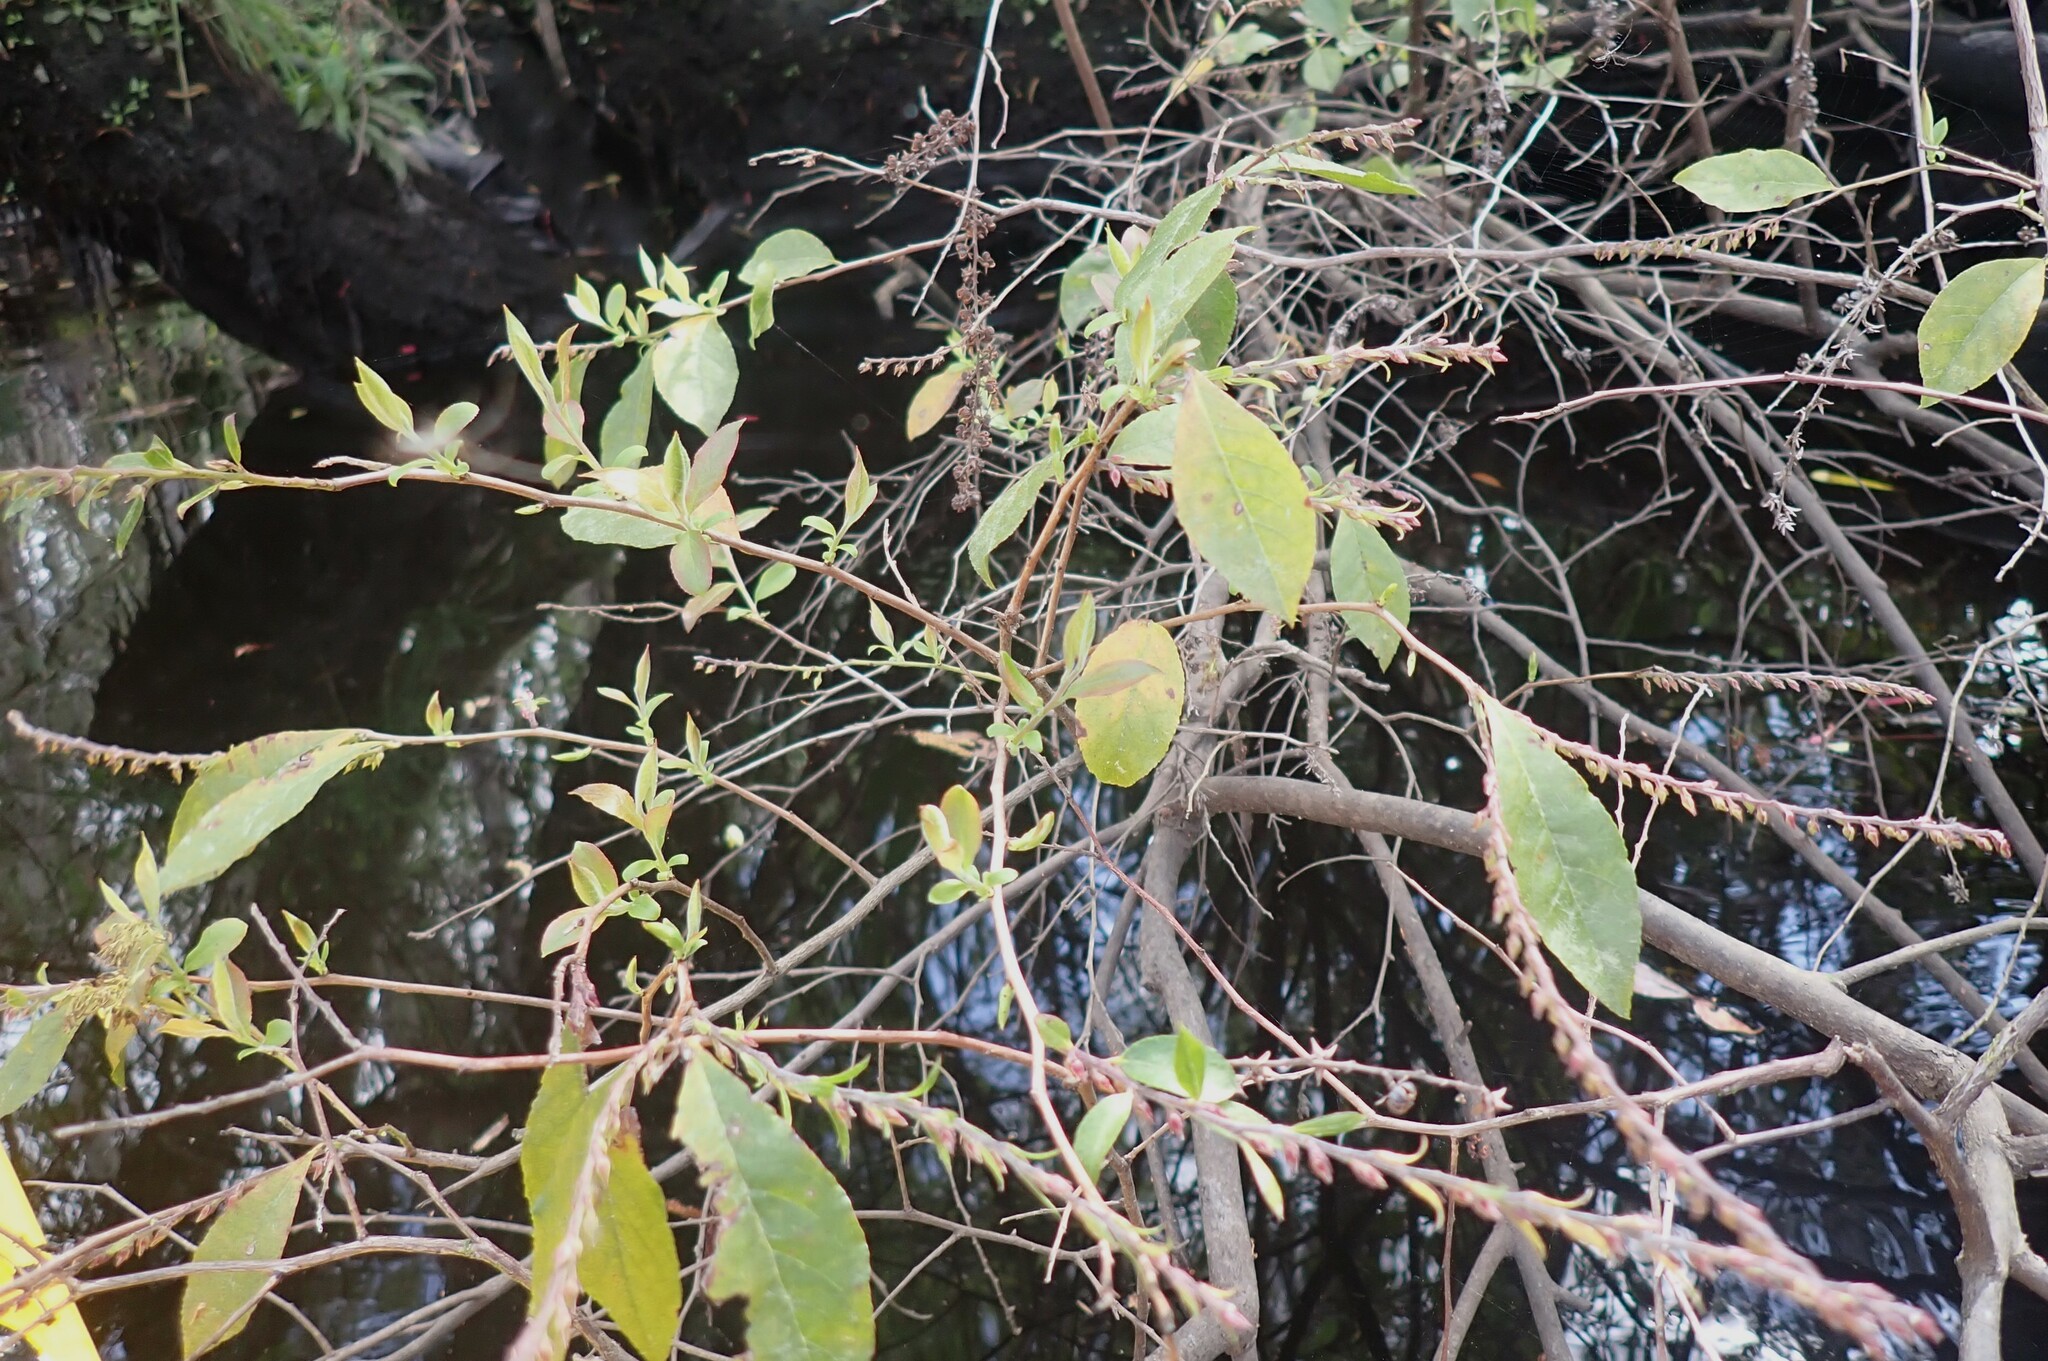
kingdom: Plantae
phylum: Tracheophyta
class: Magnoliopsida
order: Ericales
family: Ericaceae
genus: Eubotrys
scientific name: Eubotrys racemosa
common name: Fetterbush
